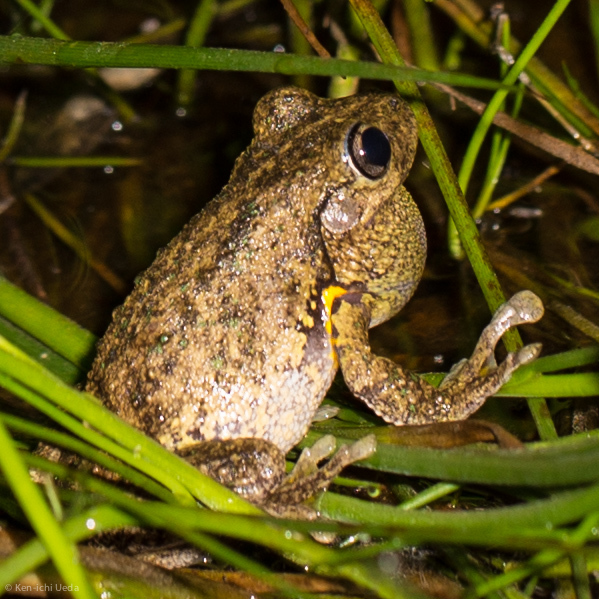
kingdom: Animalia
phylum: Chordata
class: Amphibia
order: Anura
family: Pelodryadidae
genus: Litoria
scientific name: Litoria peronii
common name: Emerald spotted treefrog
